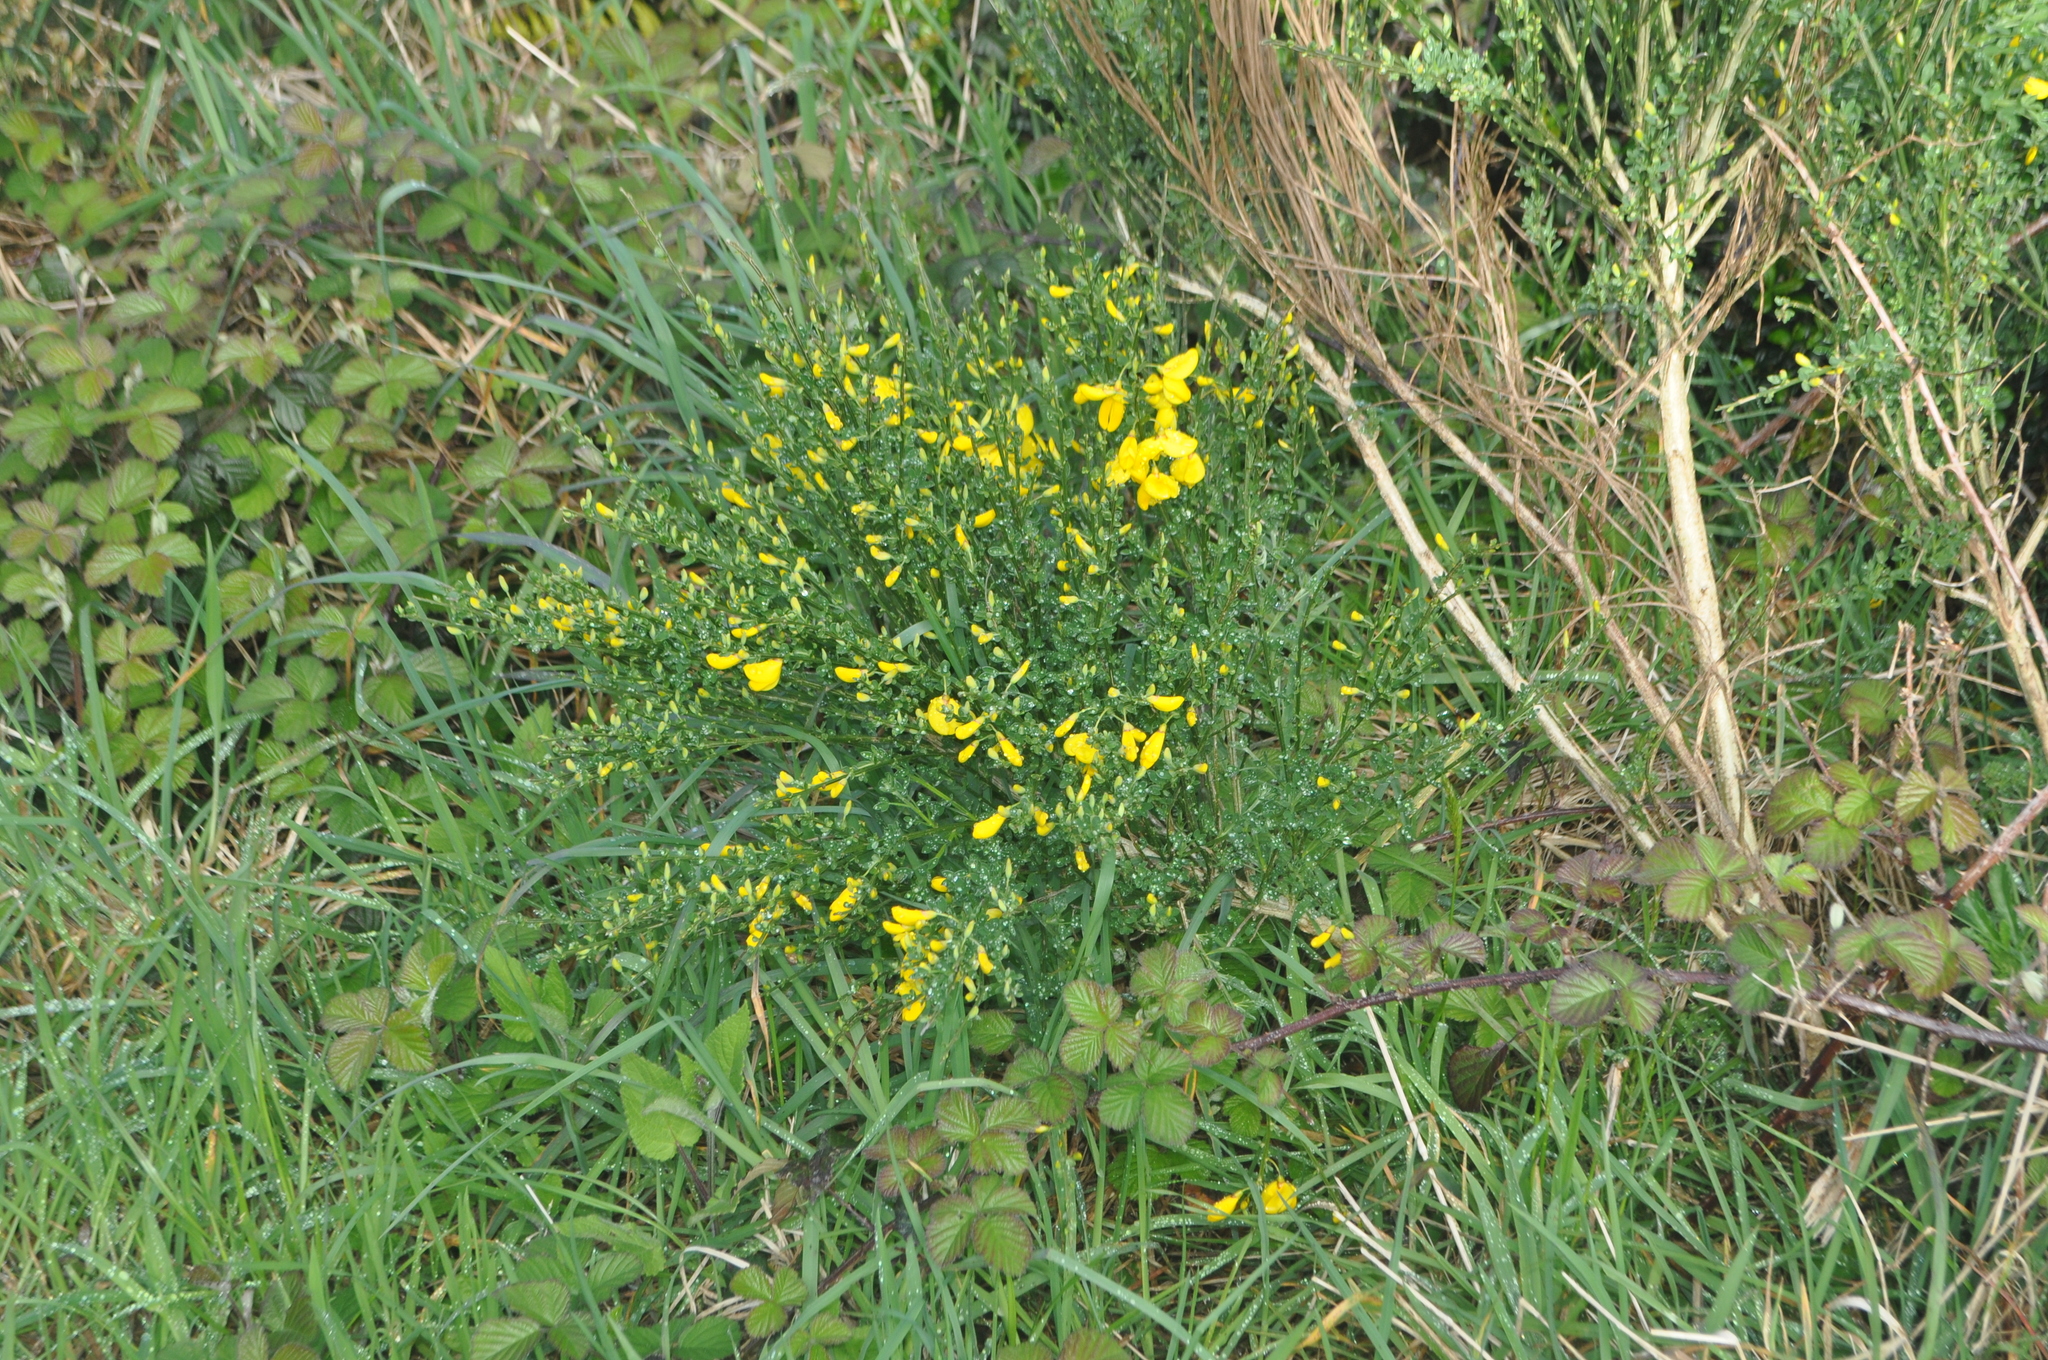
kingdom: Plantae
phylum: Tracheophyta
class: Magnoliopsida
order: Fabales
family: Fabaceae
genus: Cytisus
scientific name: Cytisus scoparius
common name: Scotch broom
